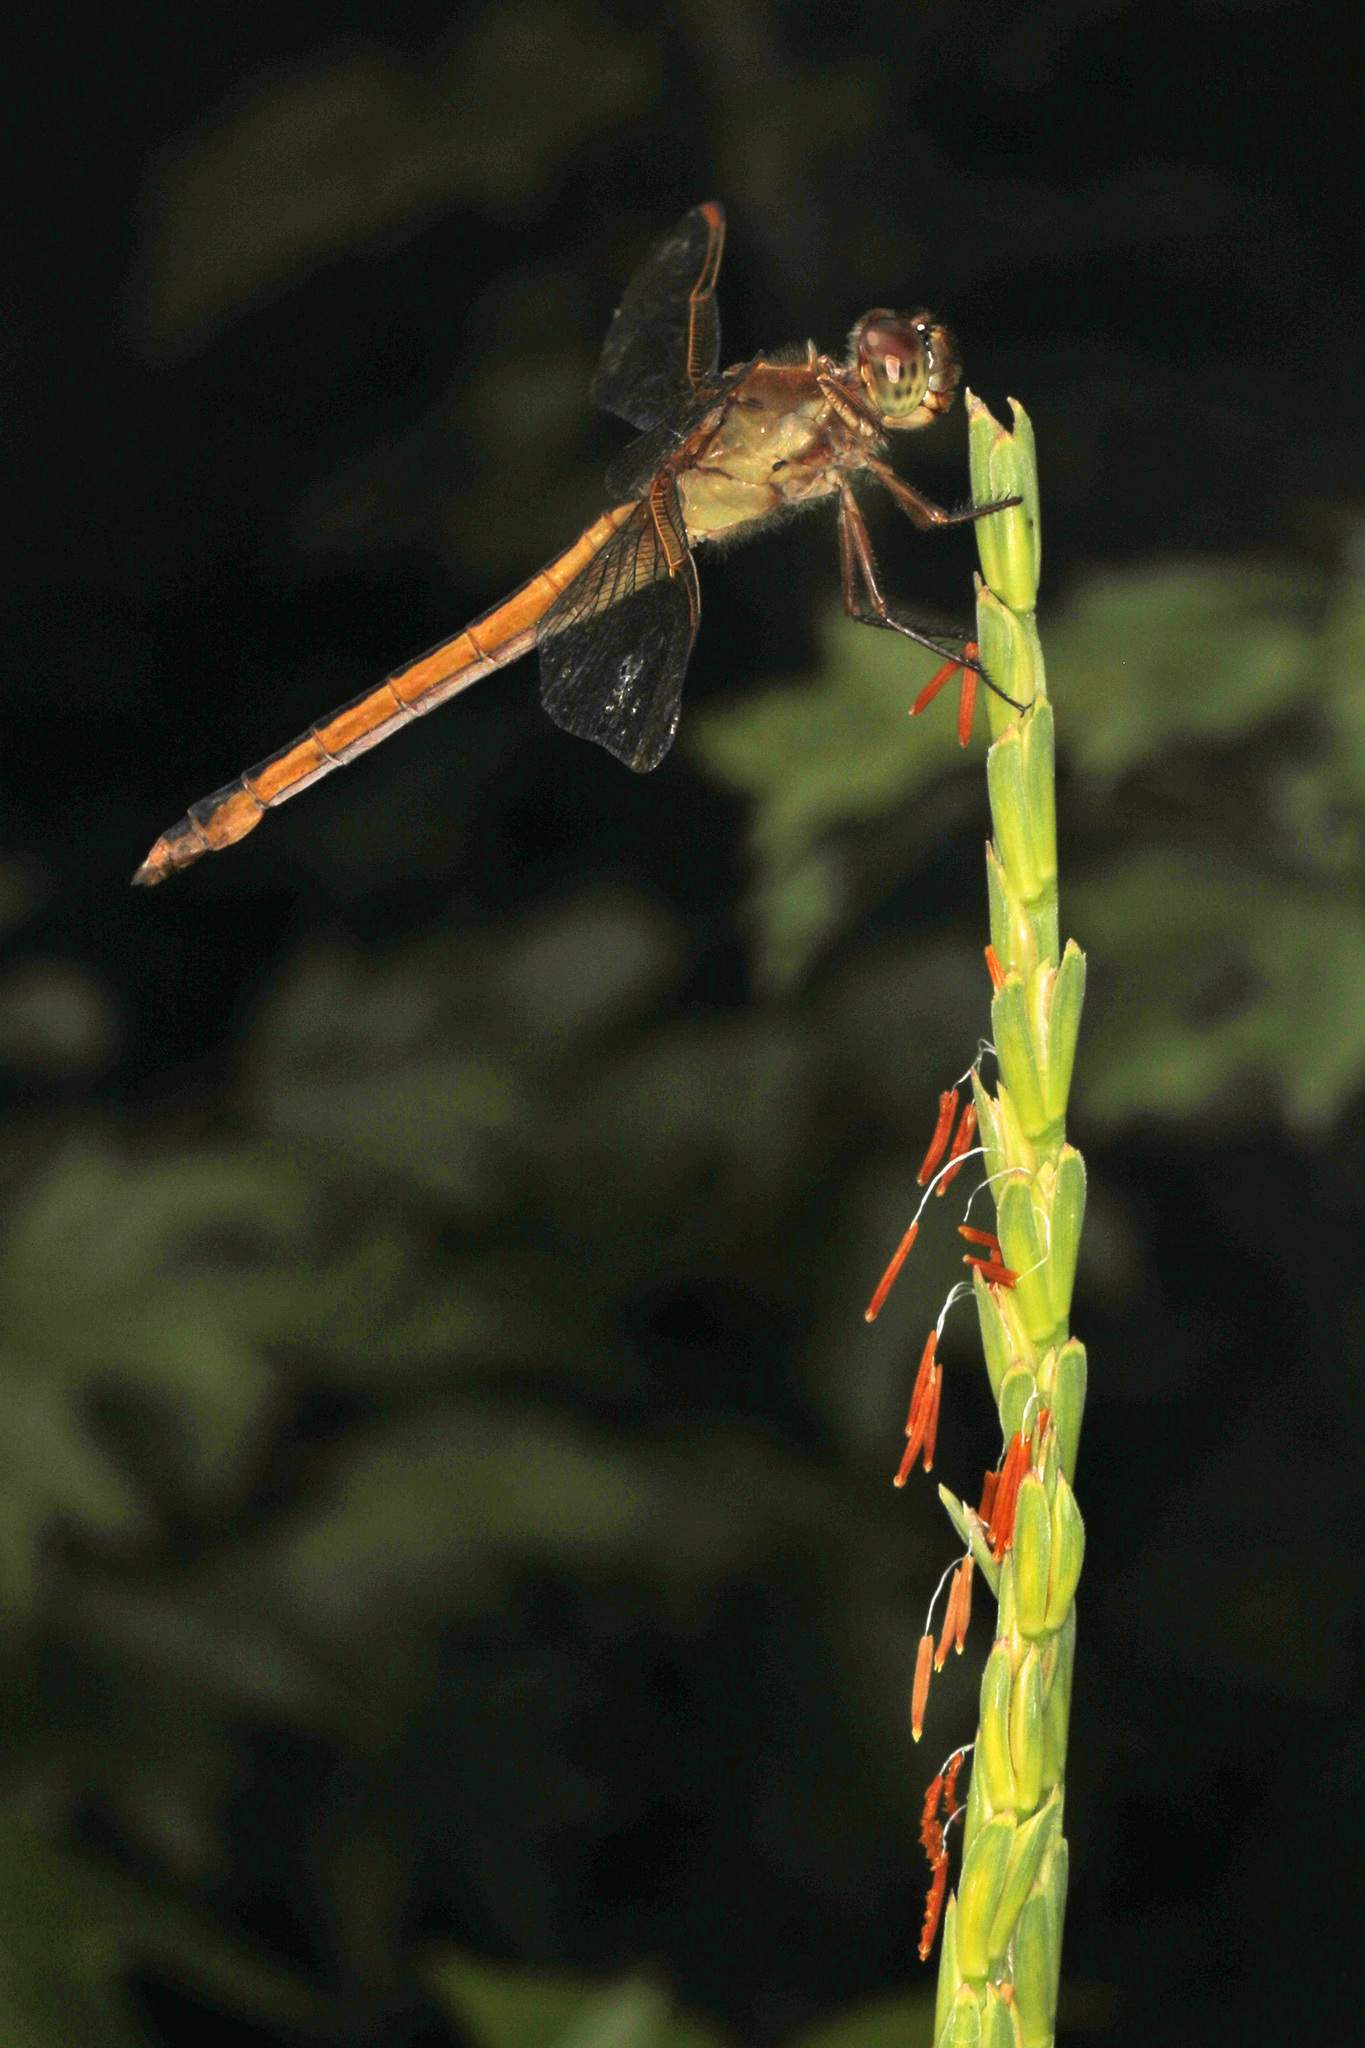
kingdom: Animalia
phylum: Arthropoda
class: Insecta
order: Odonata
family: Libellulidae
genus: Libellula
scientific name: Libellula needhami
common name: Needham's skimmer
